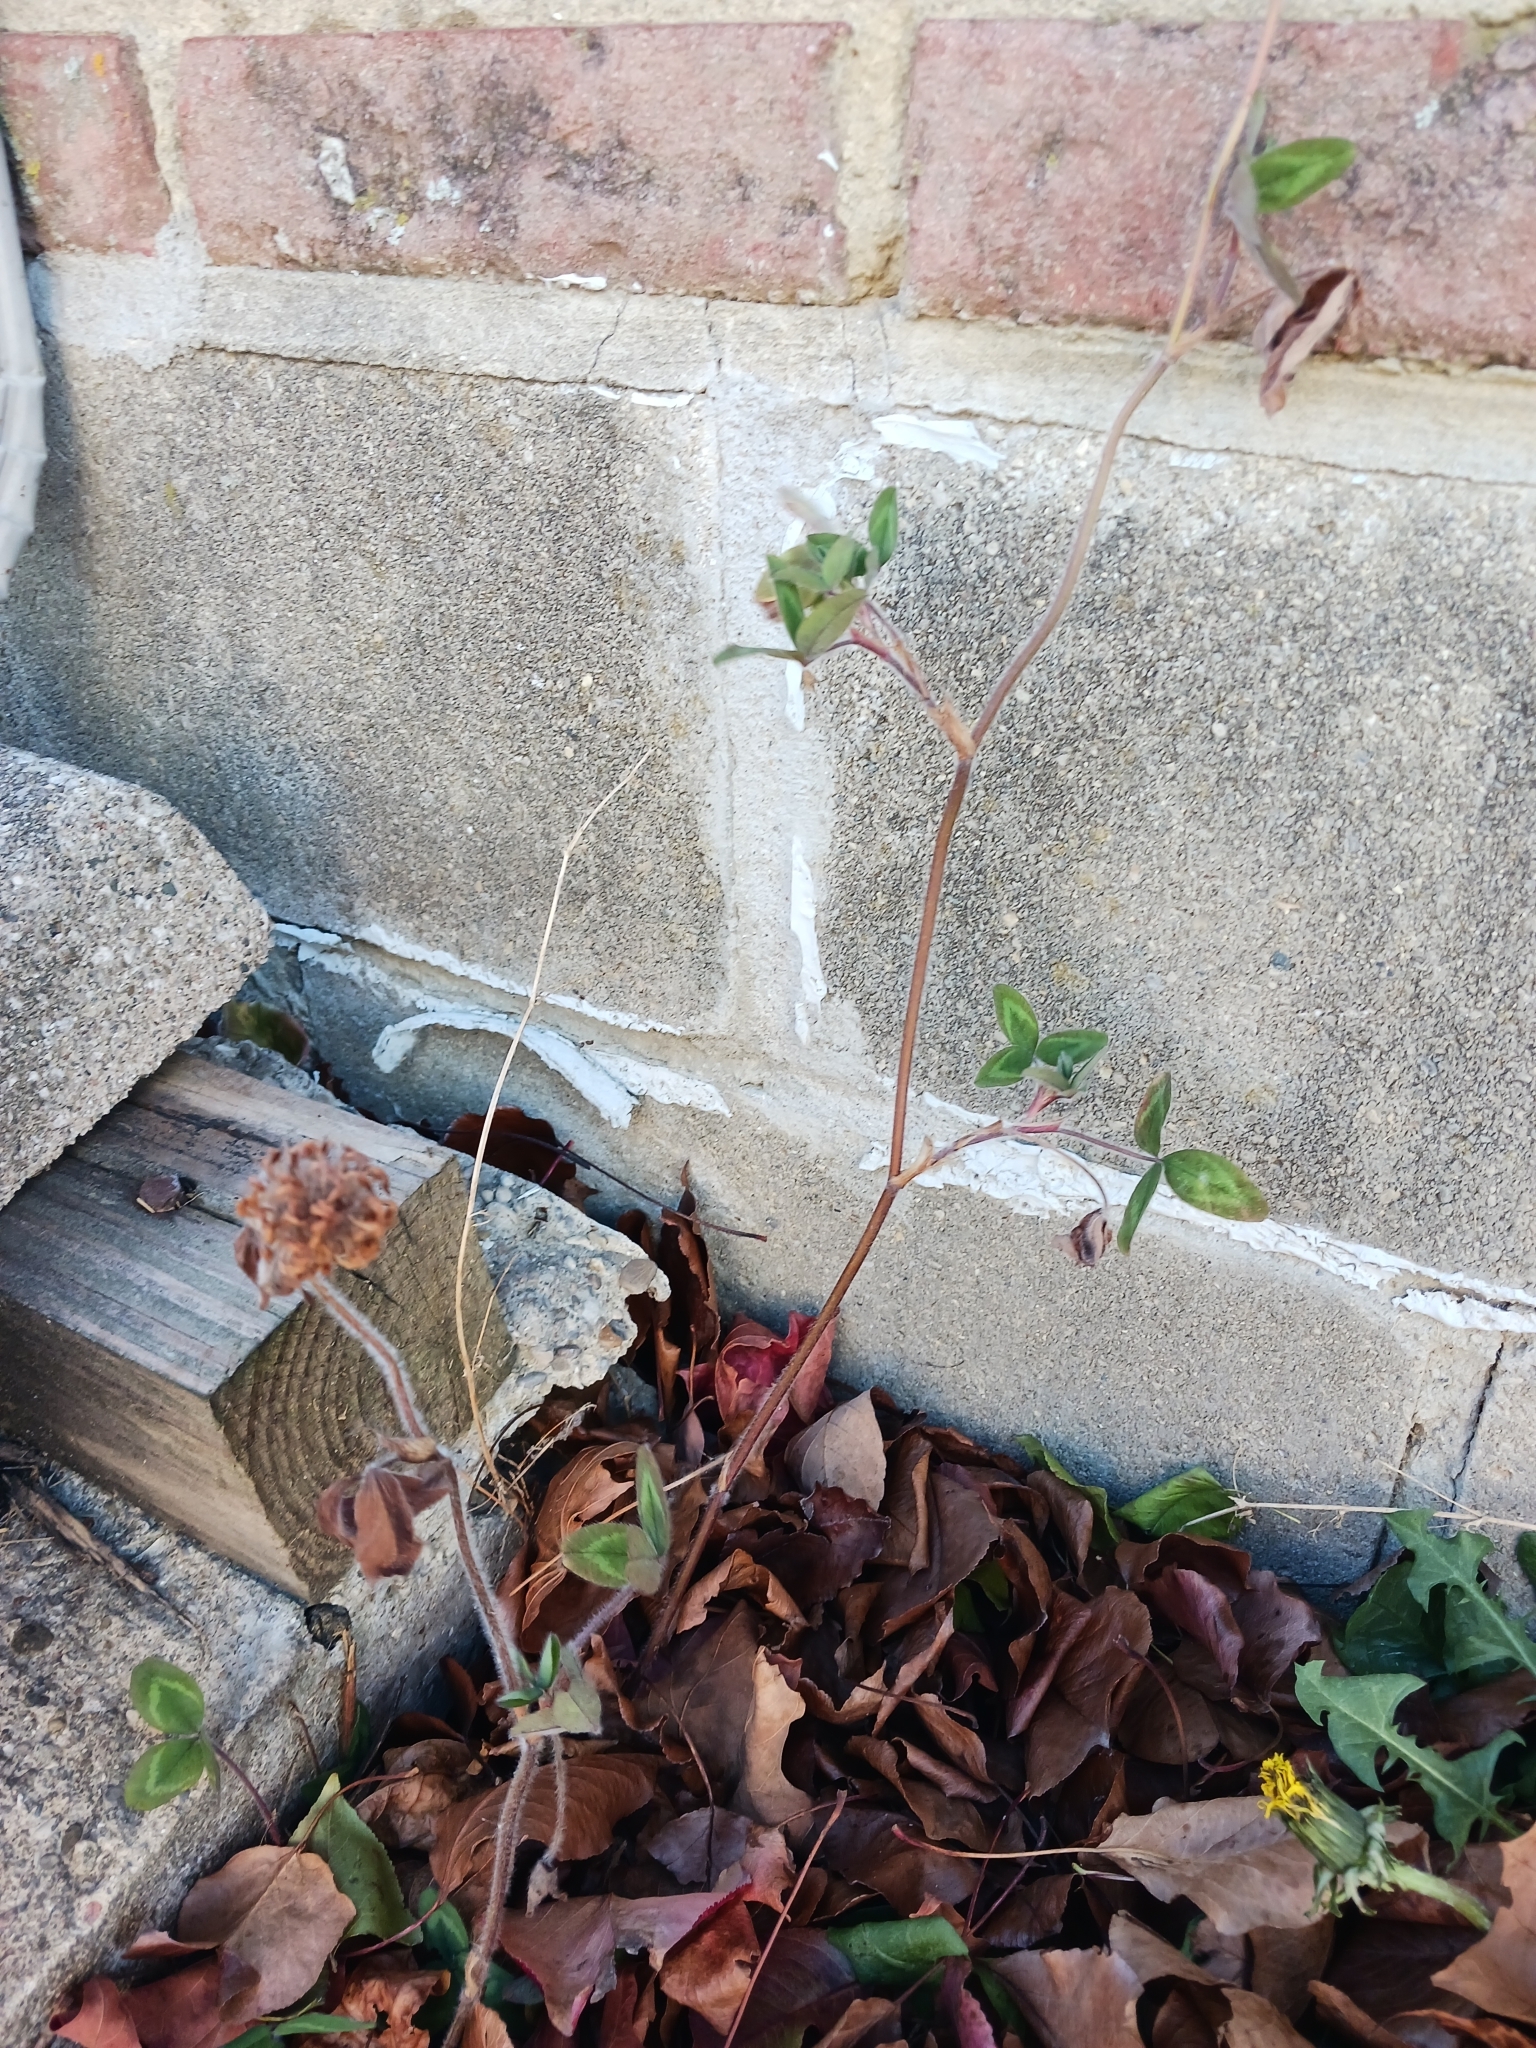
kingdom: Plantae
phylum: Tracheophyta
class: Magnoliopsida
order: Fabales
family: Fabaceae
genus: Trifolium
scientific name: Trifolium pratense
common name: Red clover
